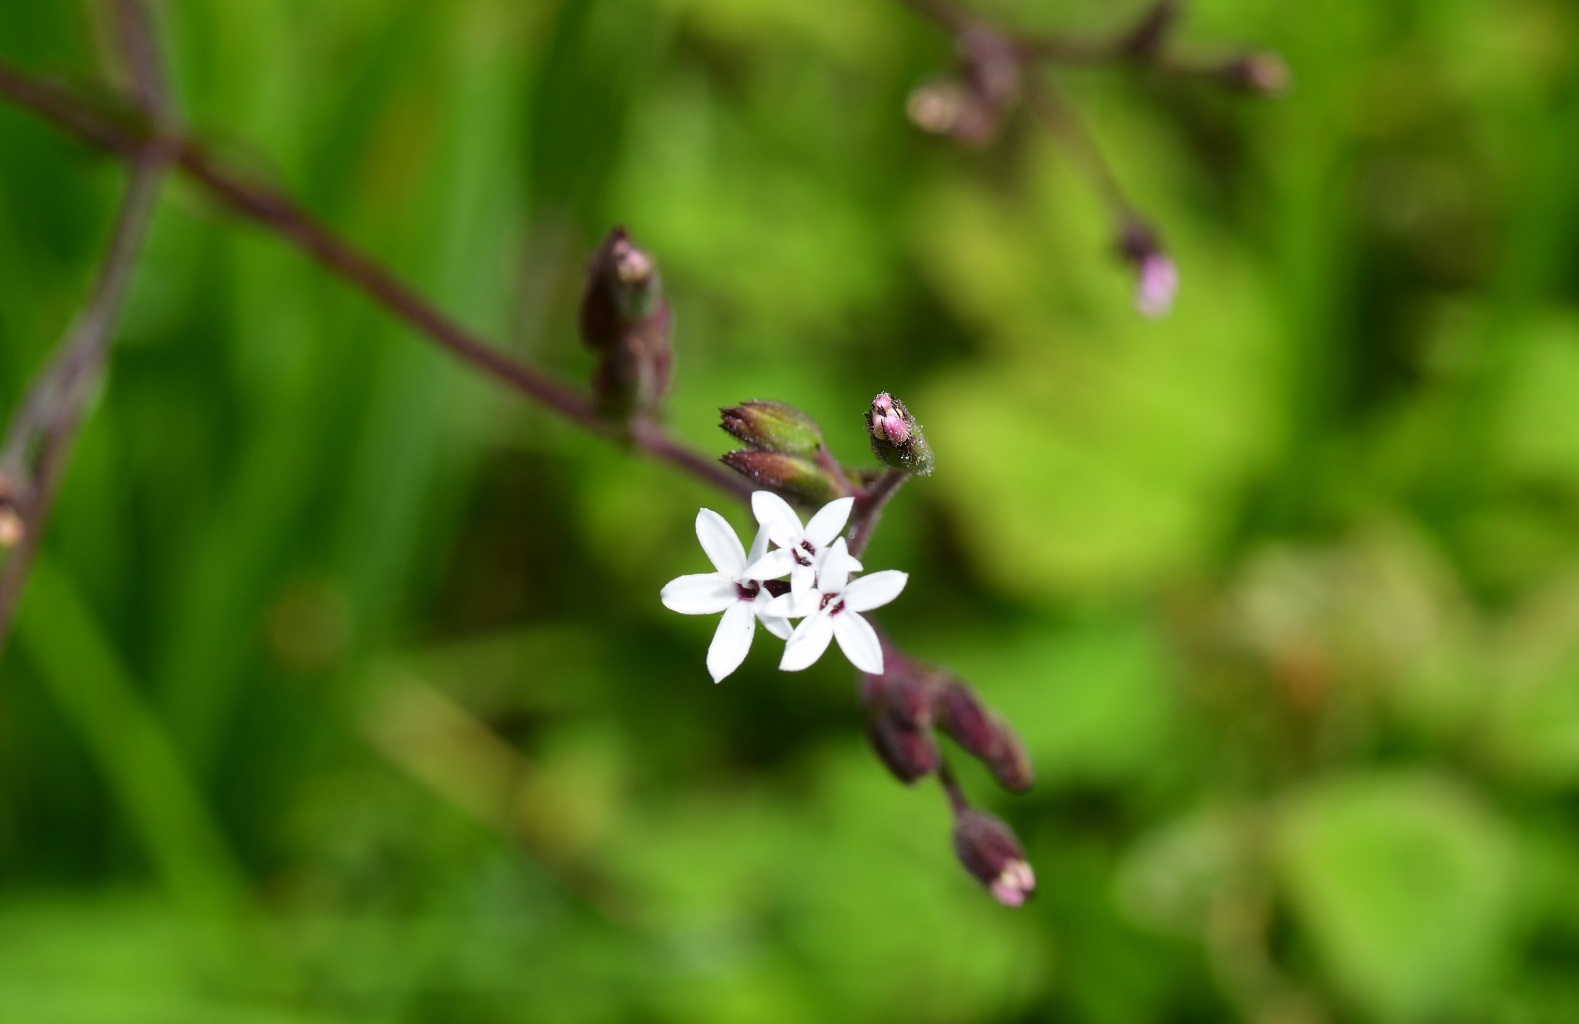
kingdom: Plantae
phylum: Tracheophyta
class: Magnoliopsida
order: Asterales
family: Asteraceae
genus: Stevia
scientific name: Stevia elatior
